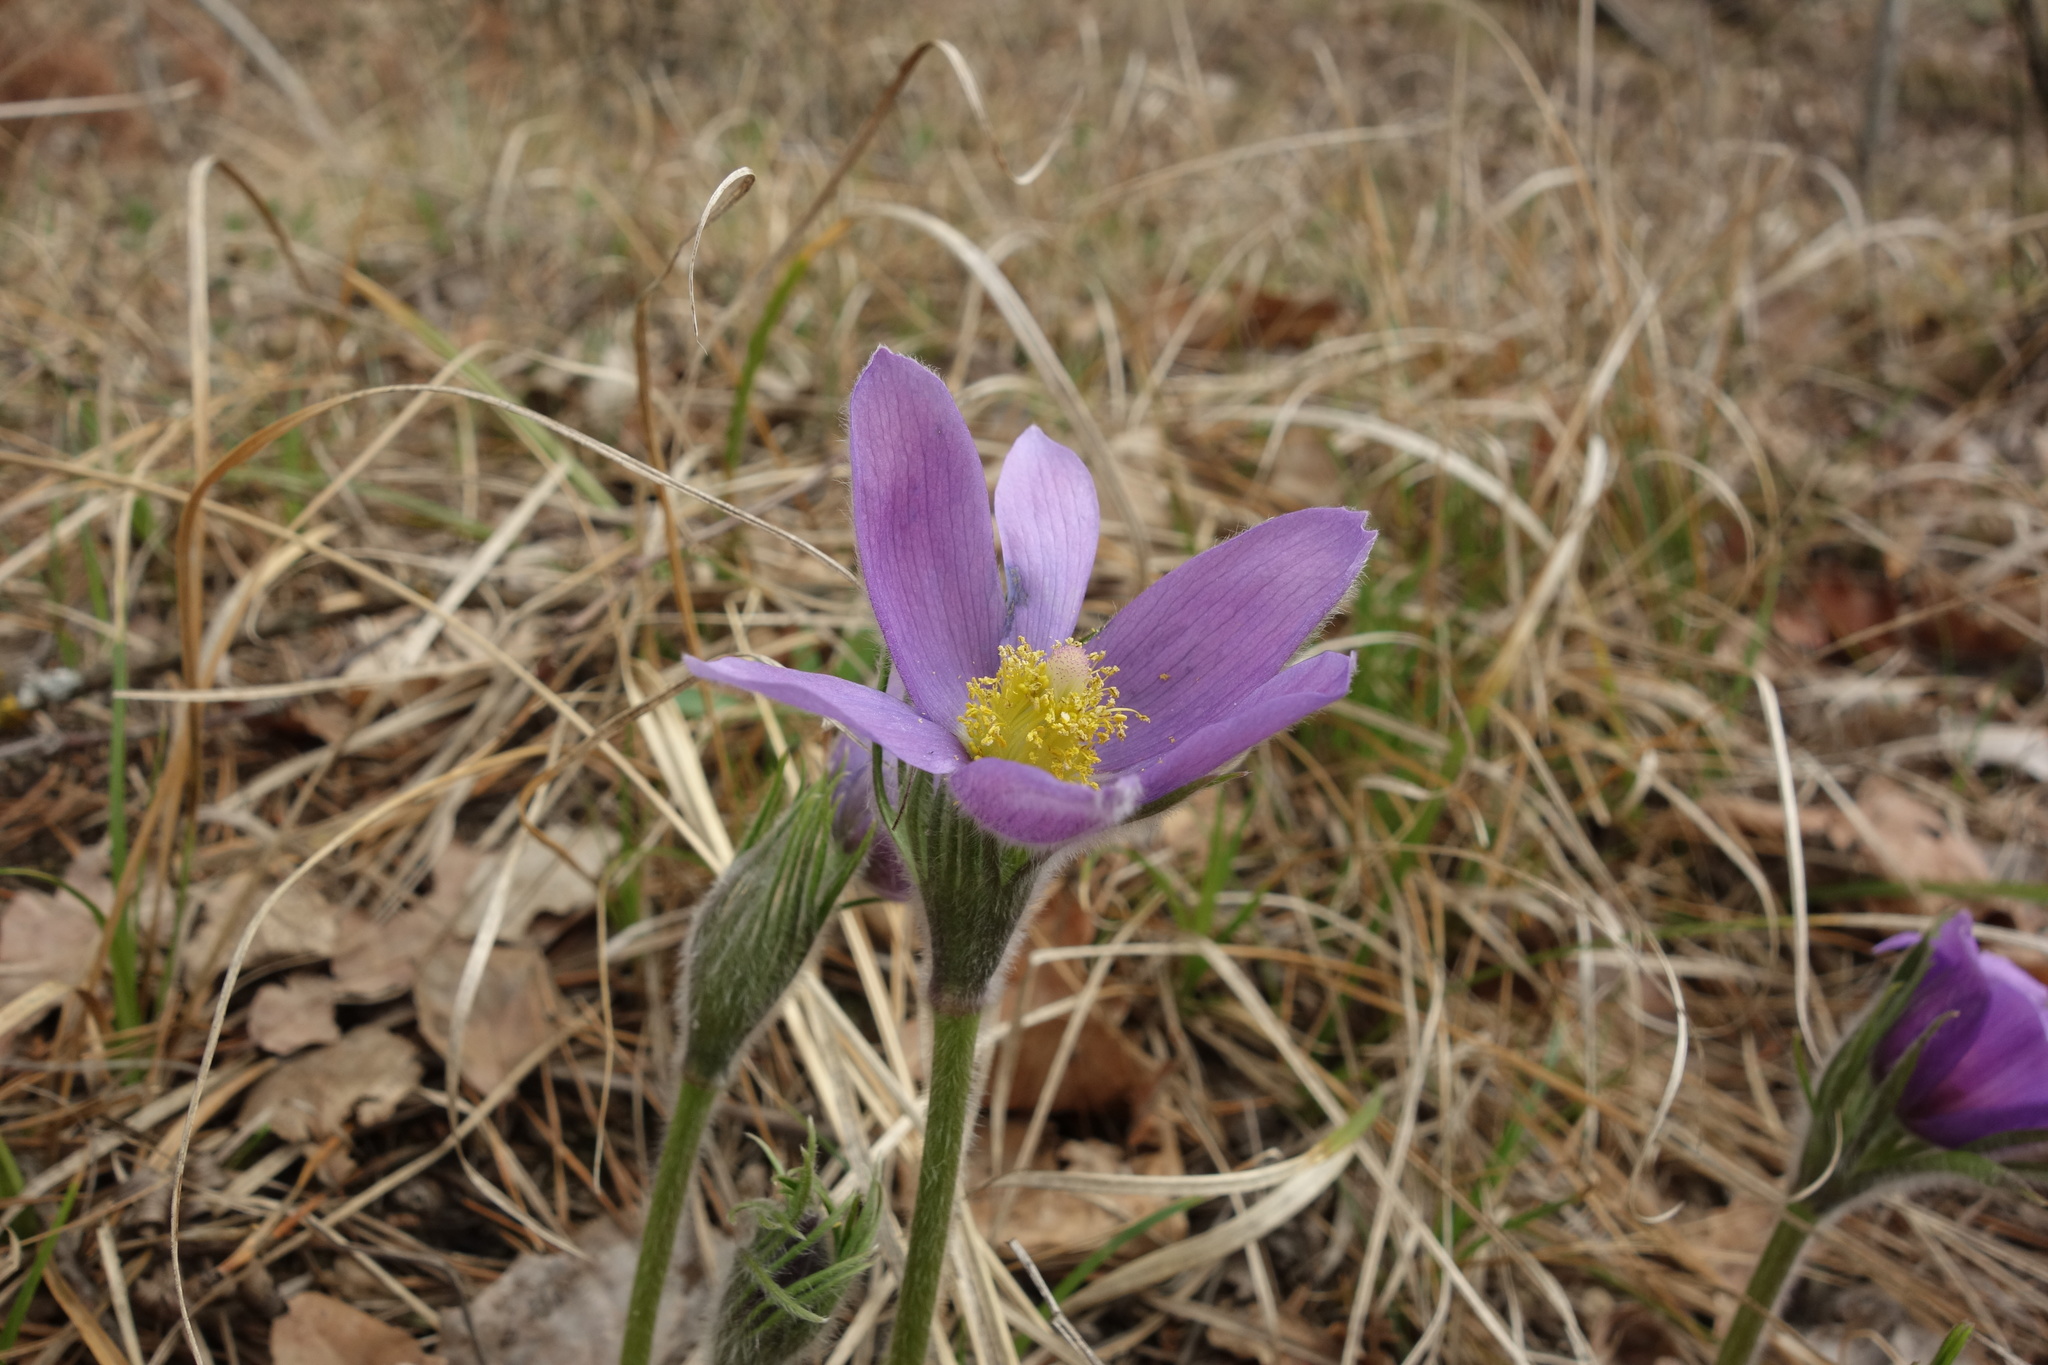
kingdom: Plantae
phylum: Tracheophyta
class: Magnoliopsida
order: Ranunculales
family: Ranunculaceae
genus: Pulsatilla
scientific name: Pulsatilla patens
